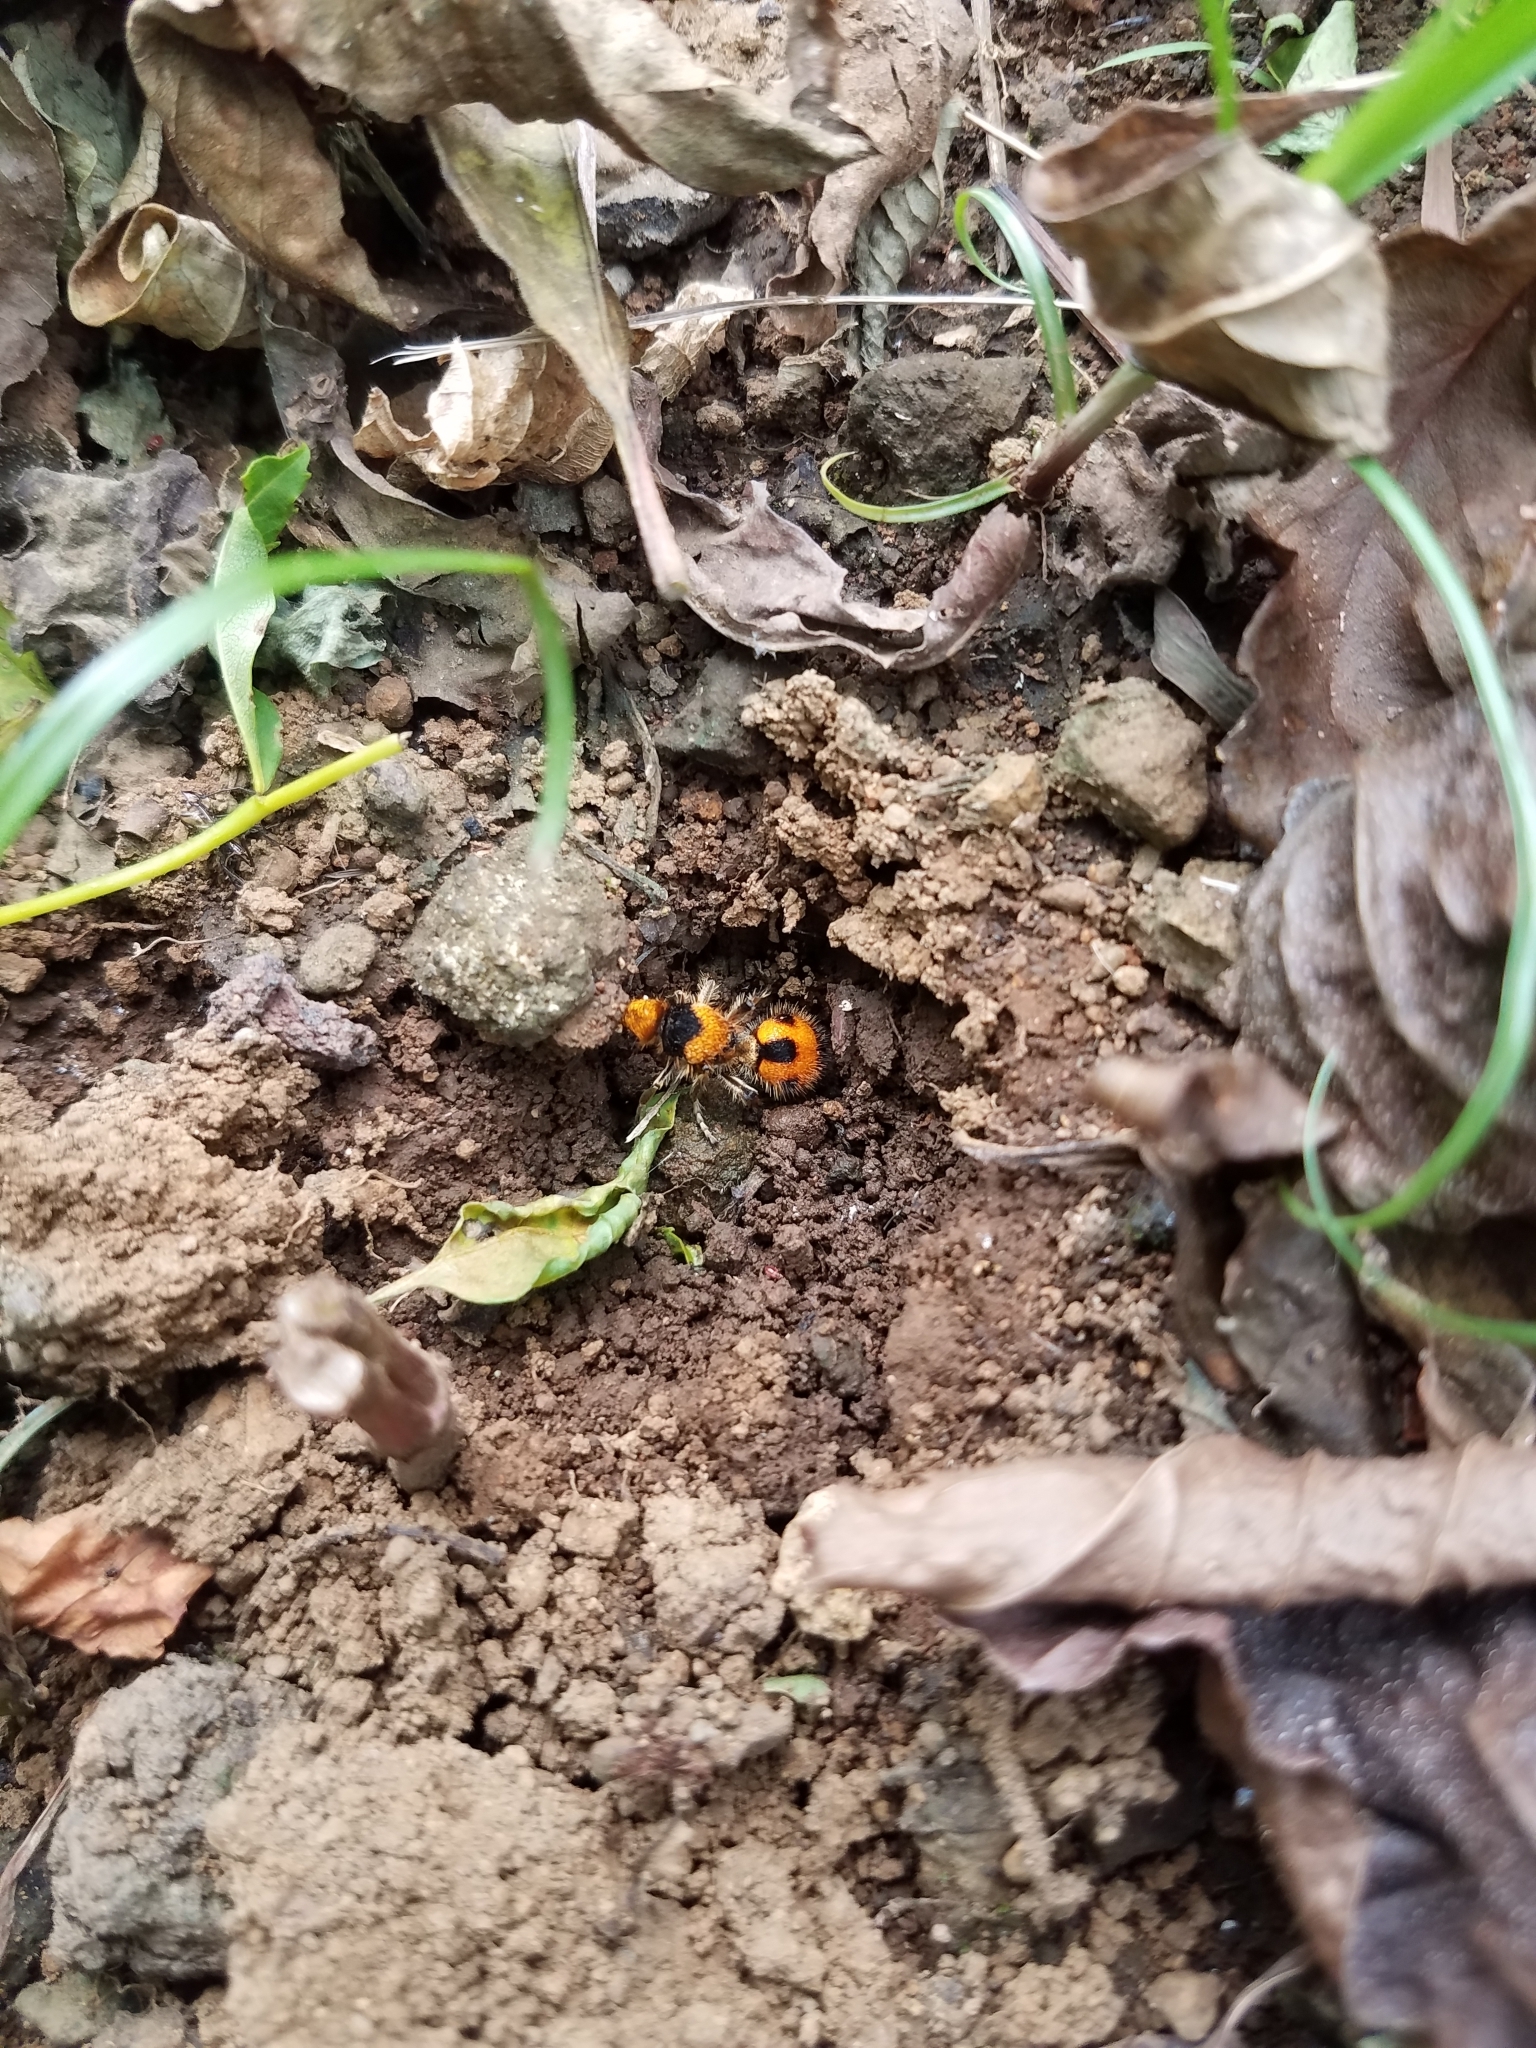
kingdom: Animalia
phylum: Arthropoda
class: Insecta
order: Hymenoptera
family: Mutillidae
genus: Dasymutilla
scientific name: Dasymutilla pulchra
